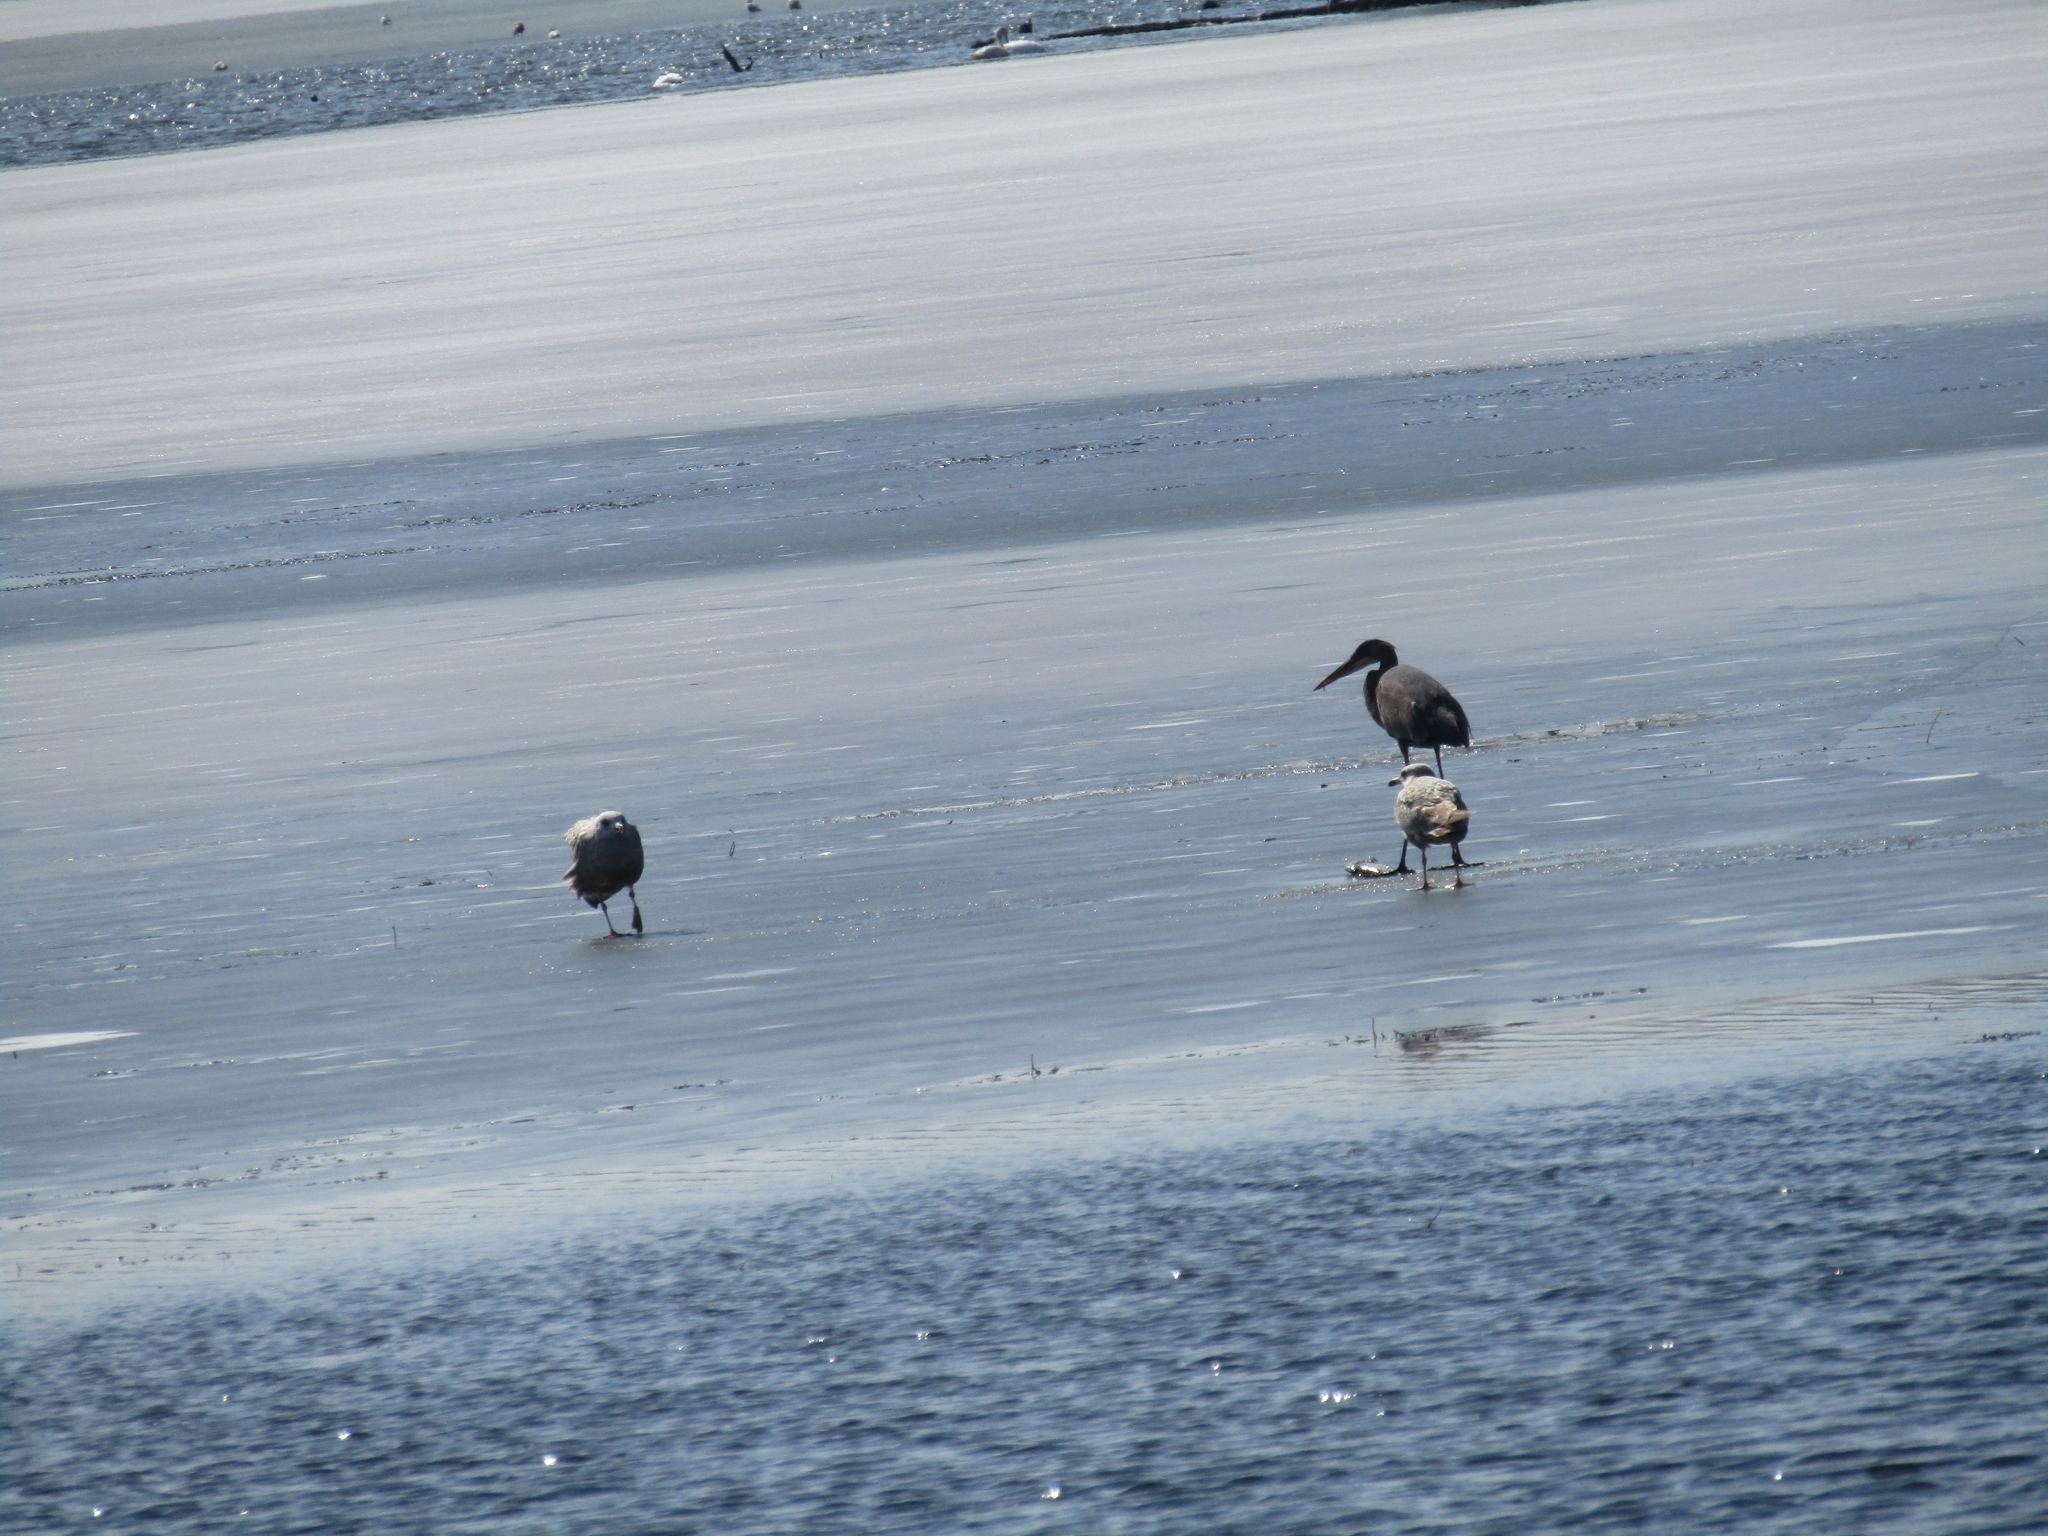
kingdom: Animalia
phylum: Chordata
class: Aves
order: Charadriiformes
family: Laridae
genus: Larus
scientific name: Larus argentatus
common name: Herring gull
